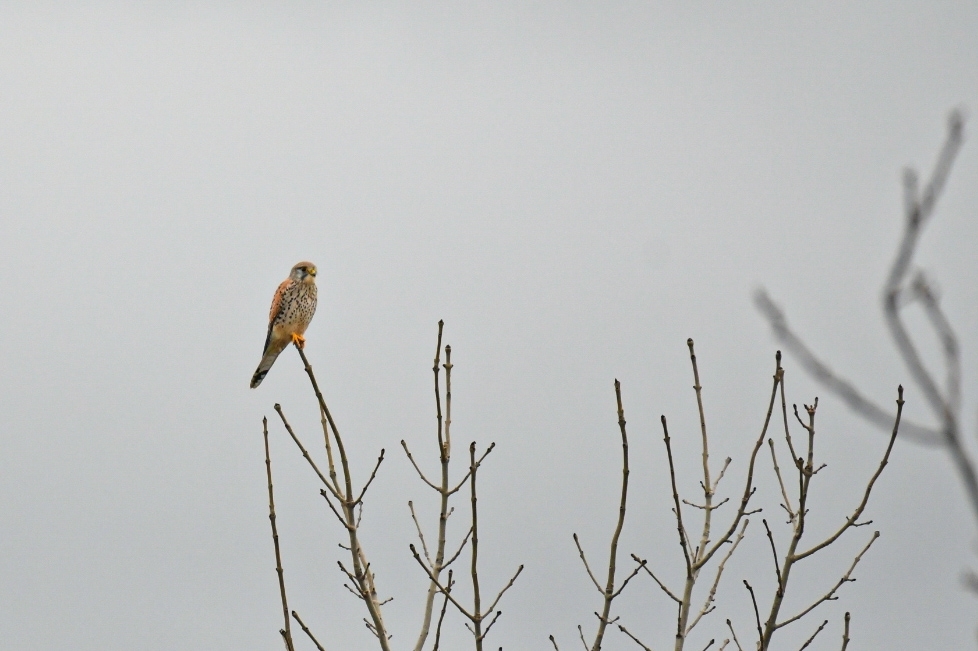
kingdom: Animalia
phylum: Chordata
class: Aves
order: Falconiformes
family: Falconidae
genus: Falco
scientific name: Falco tinnunculus
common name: Common kestrel
